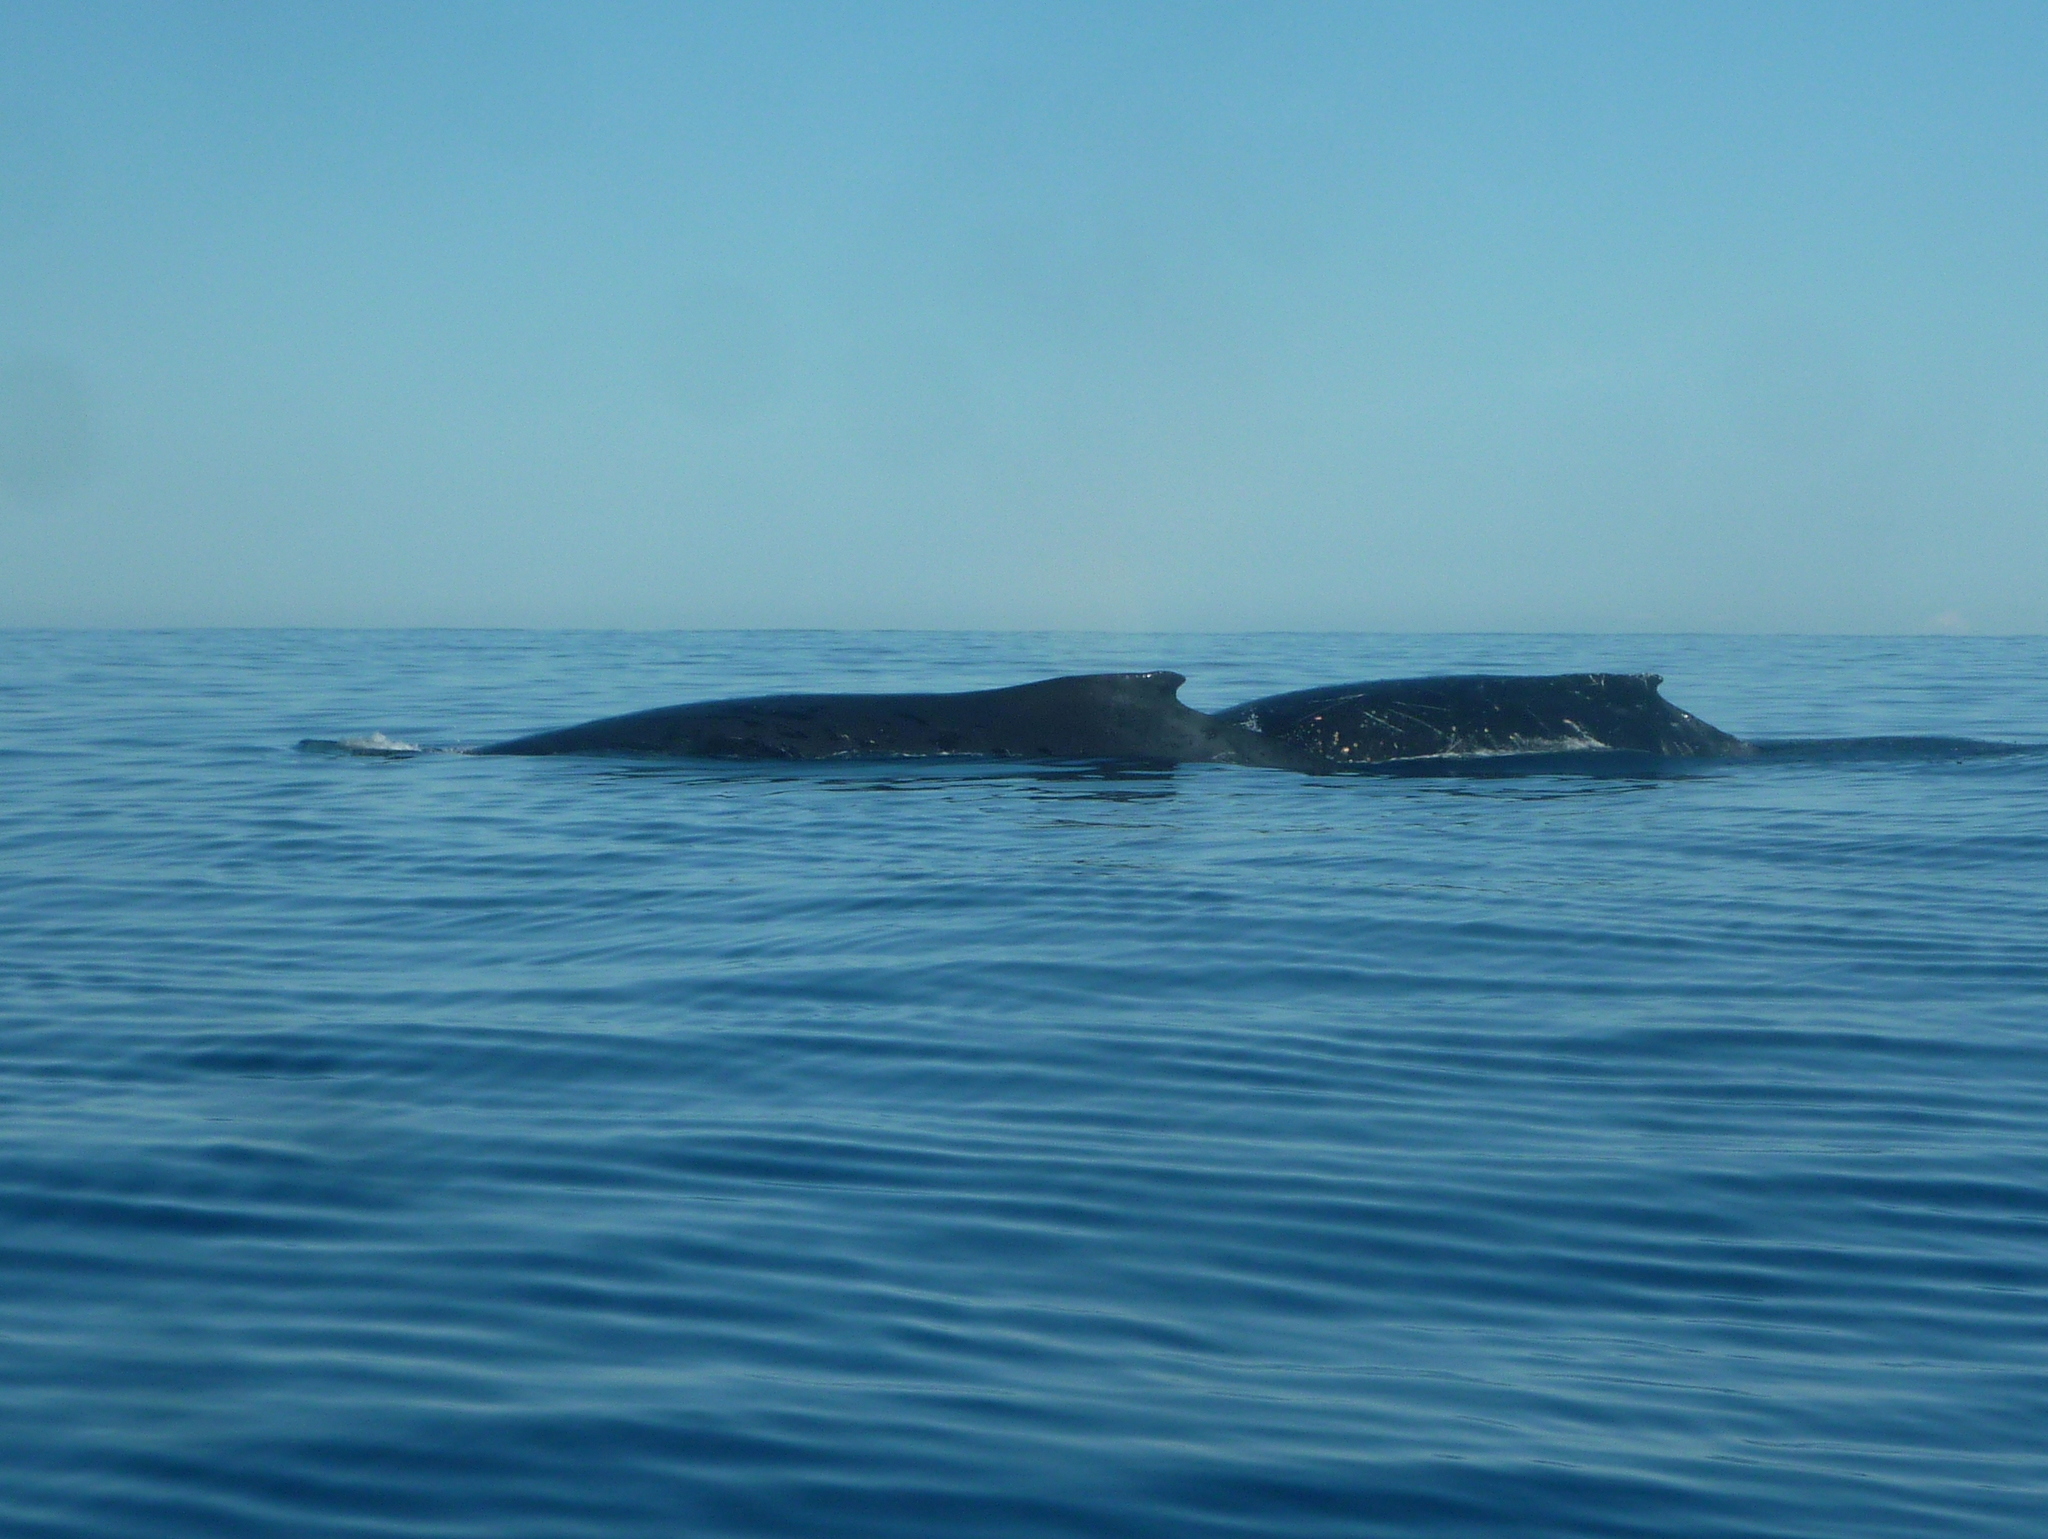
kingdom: Animalia
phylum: Chordata
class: Mammalia
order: Cetacea
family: Balaenopteridae
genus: Megaptera
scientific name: Megaptera novaeangliae
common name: Humpback whale
